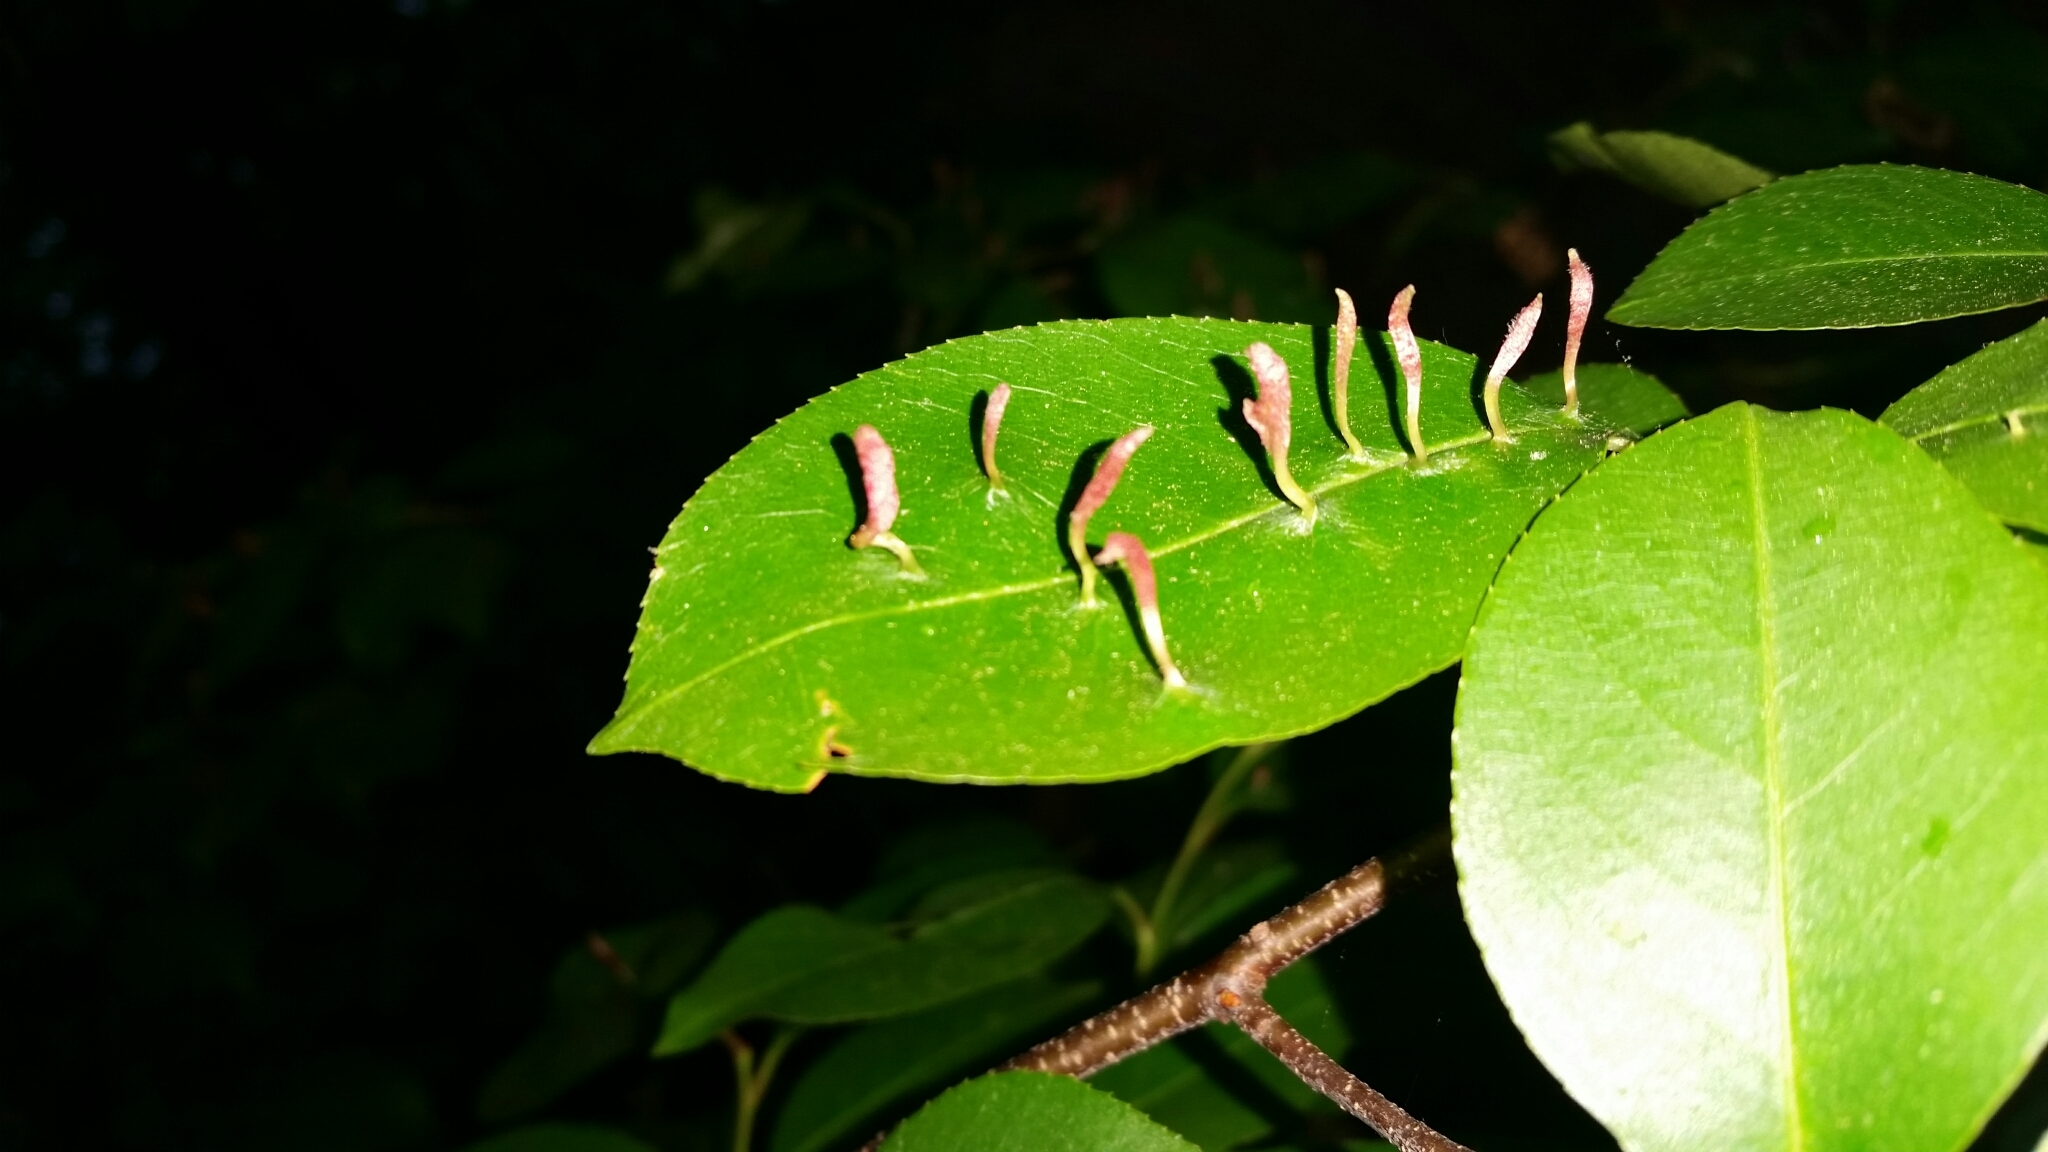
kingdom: Animalia
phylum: Arthropoda
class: Arachnida
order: Trombidiformes
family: Eriophyidae
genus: Eriophyes
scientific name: Eriophyes
